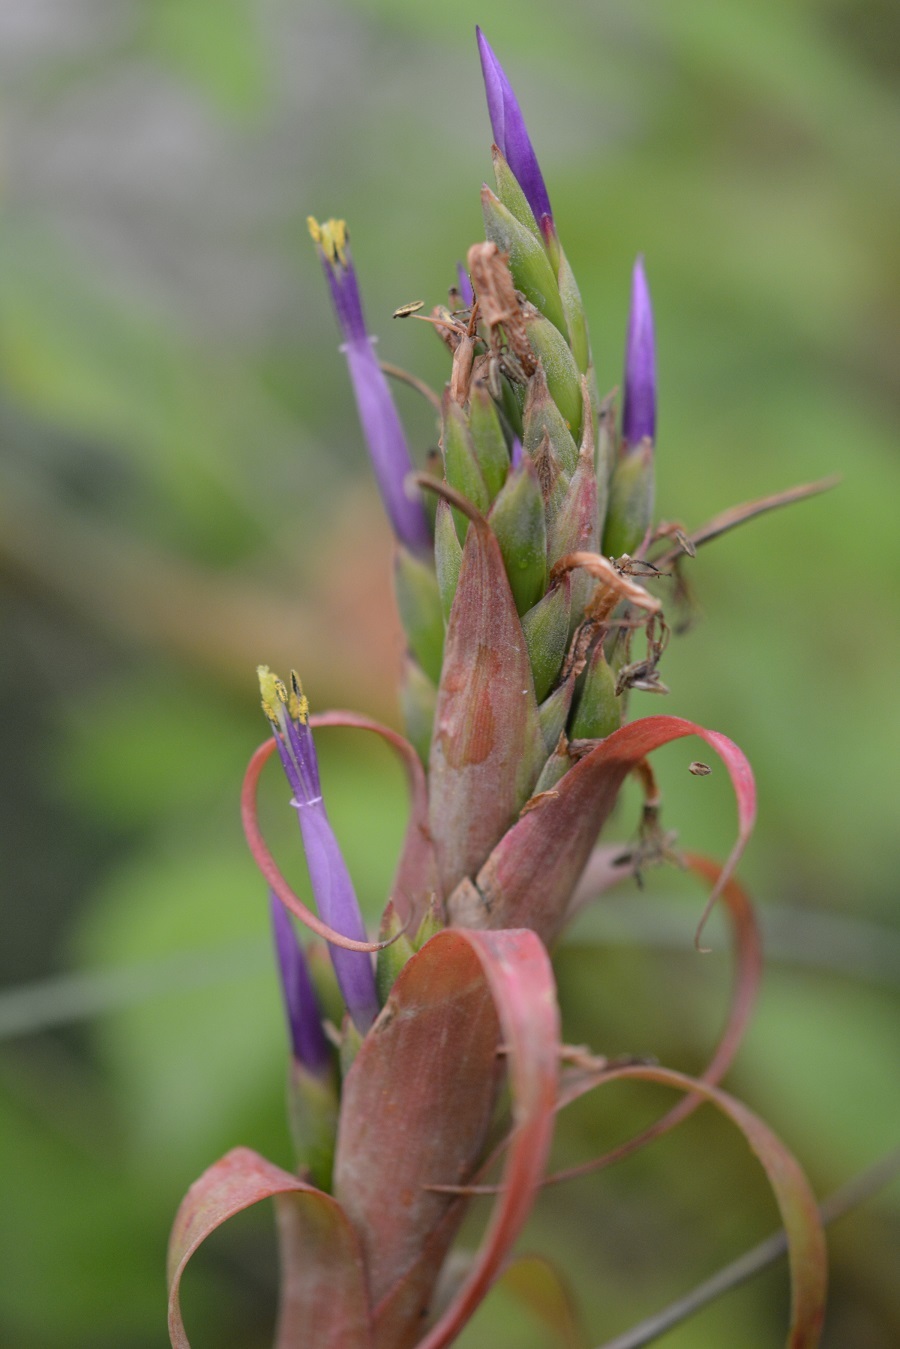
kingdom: Plantae
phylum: Tracheophyta
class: Liliopsida
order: Poales
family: Bromeliaceae
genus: Tillandsia
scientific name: Tillandsia belloensis
